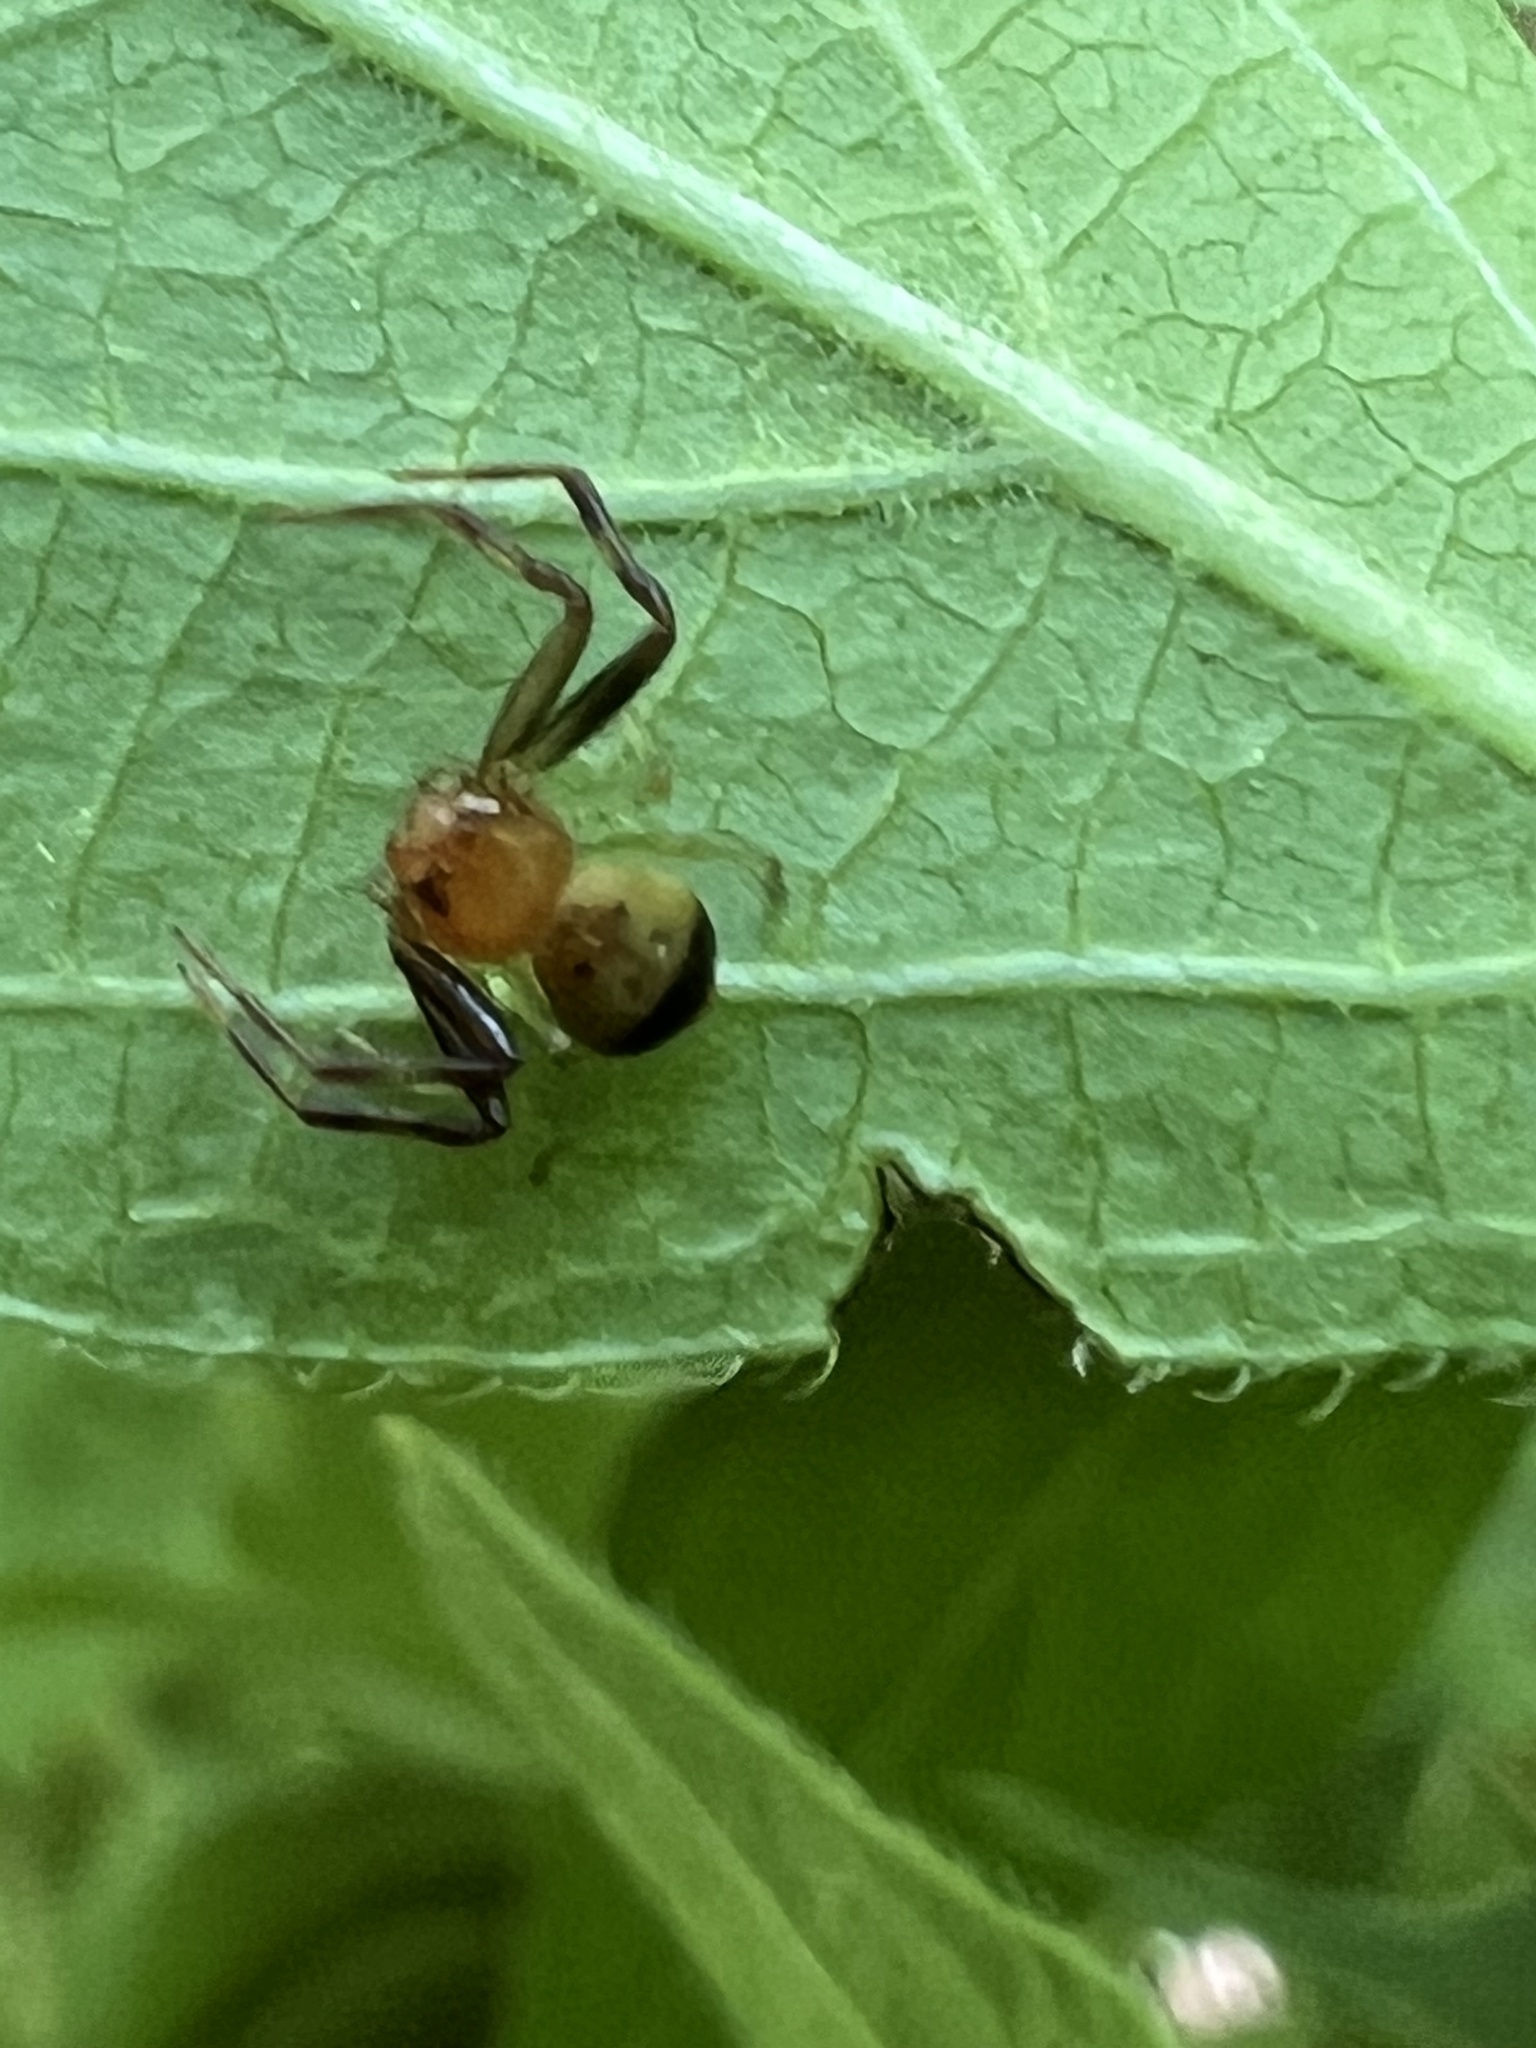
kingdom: Animalia
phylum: Arthropoda
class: Arachnida
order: Araneae
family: Thomisidae
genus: Synema
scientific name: Synema parvulum
